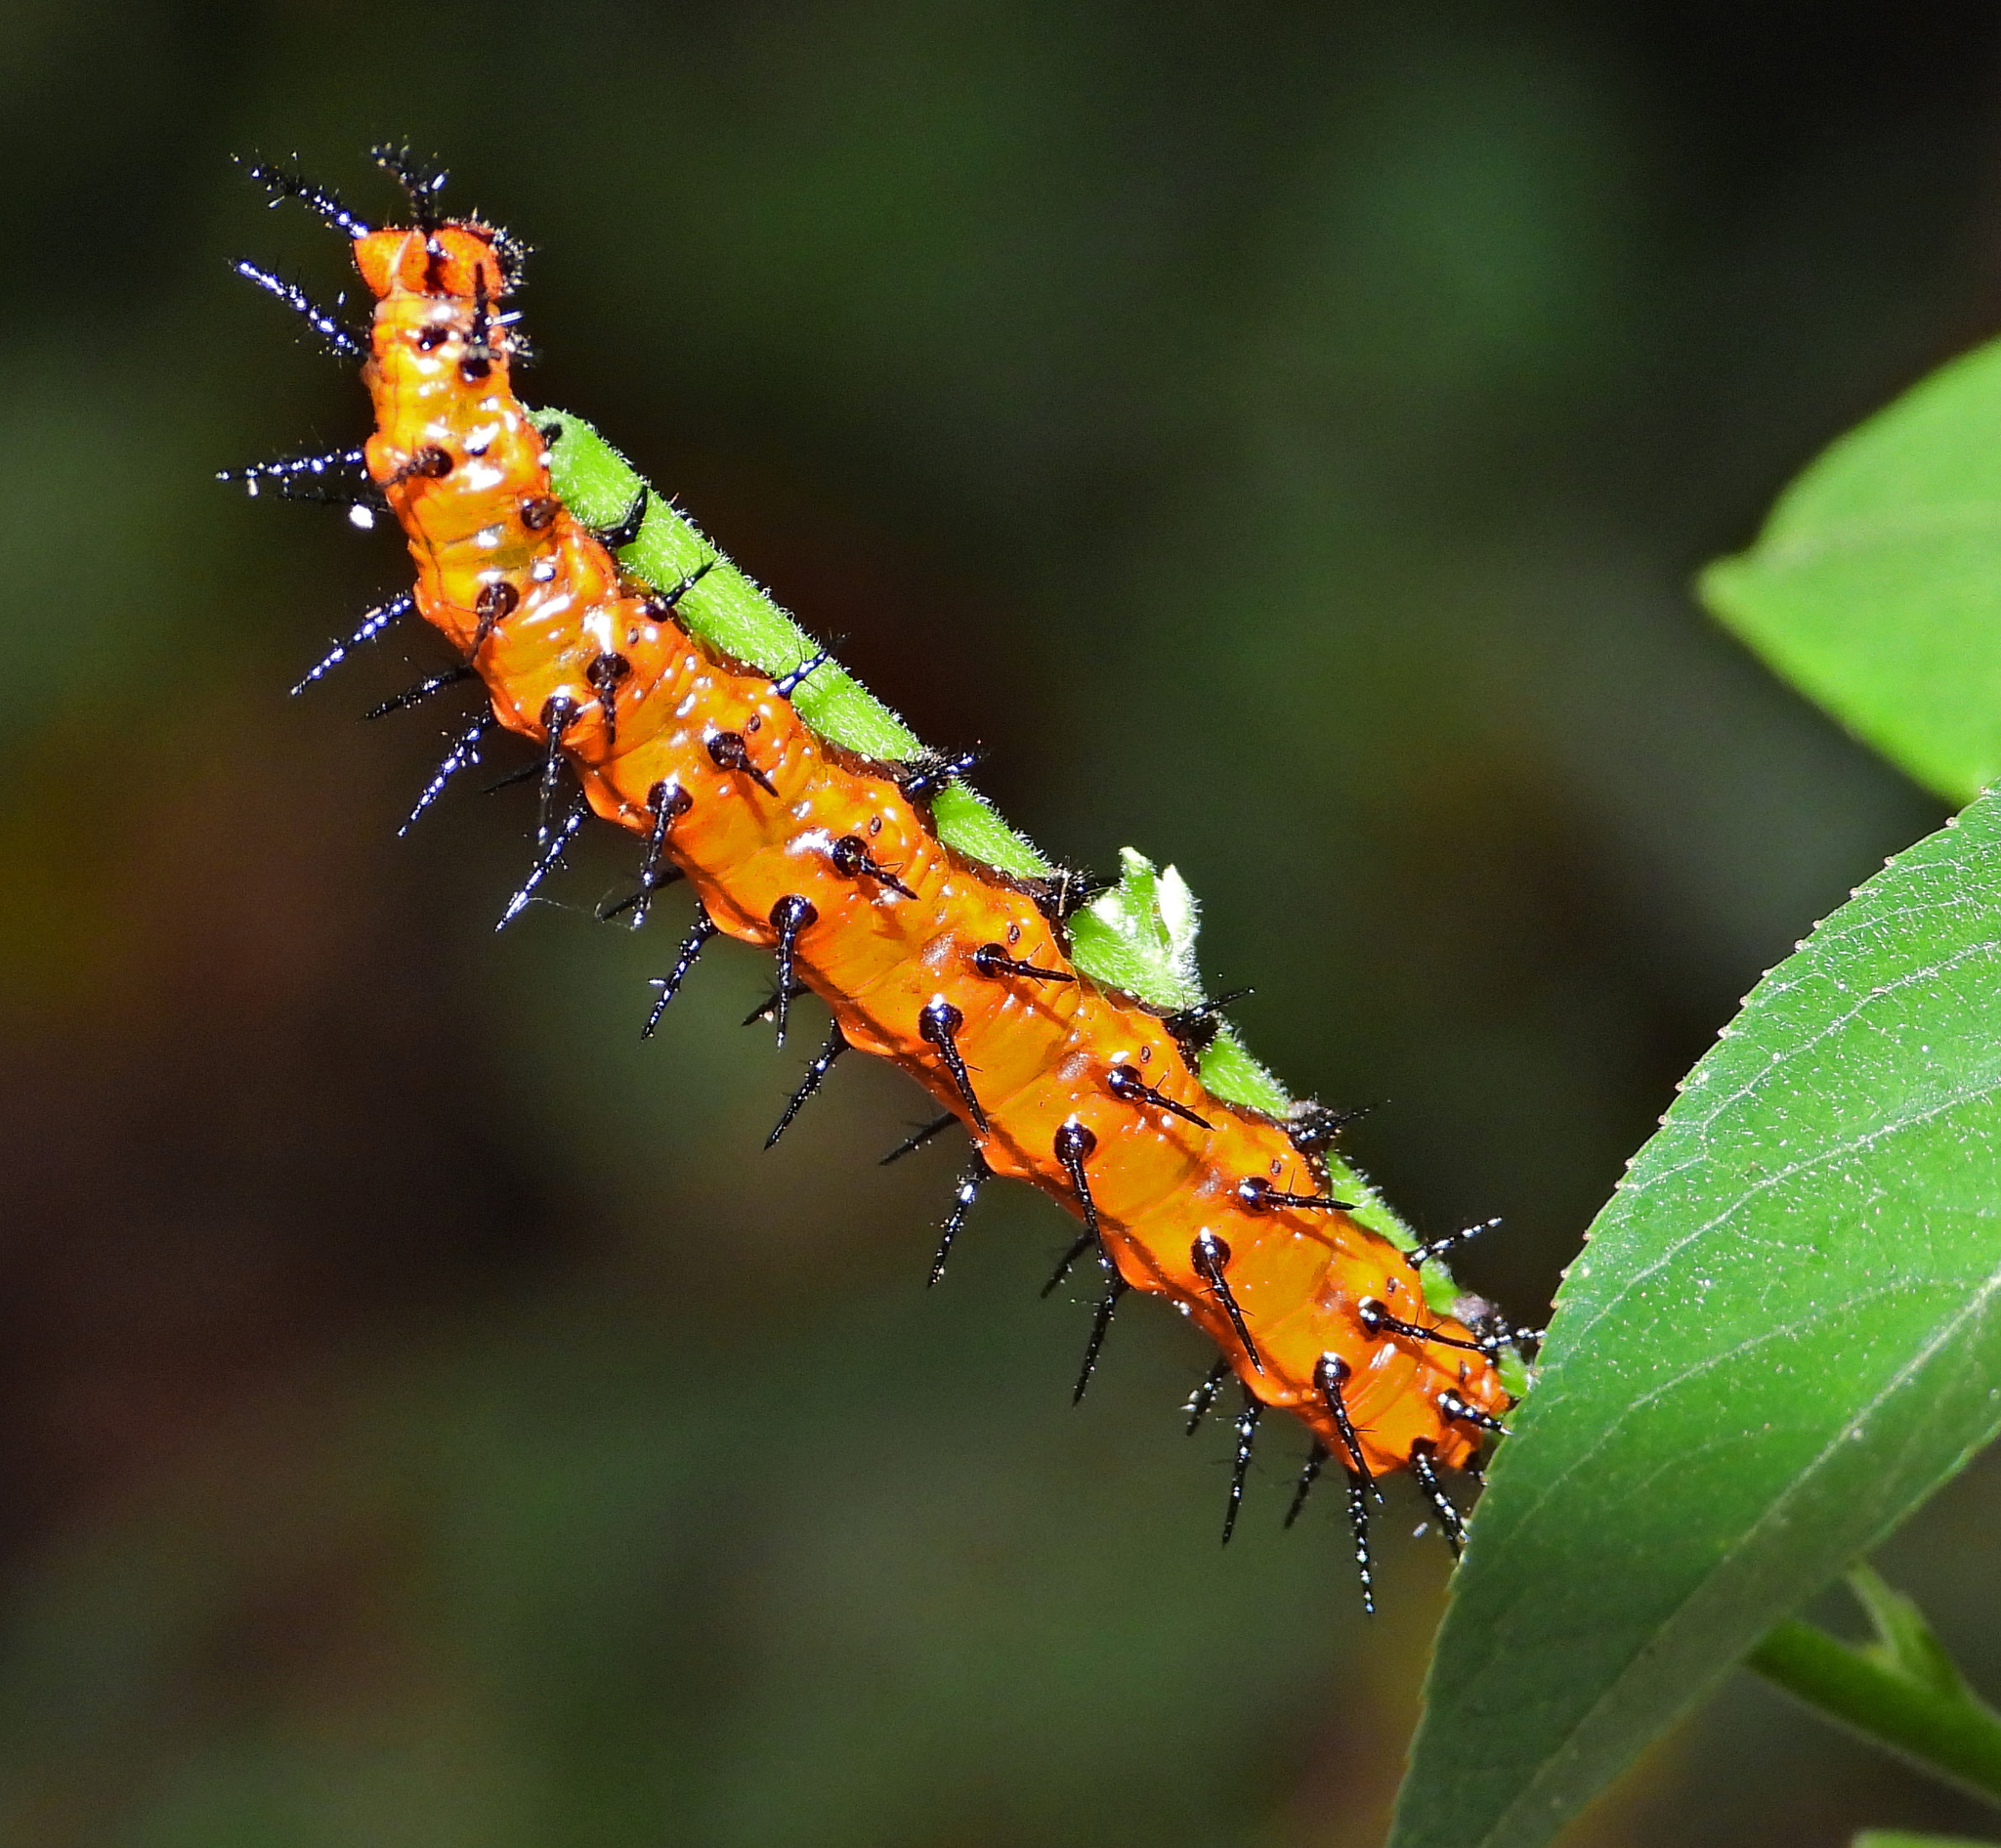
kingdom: Animalia
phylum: Arthropoda
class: Insecta
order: Lepidoptera
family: Nymphalidae
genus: Dione
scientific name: Dione vanillae
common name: Gulf fritillary
